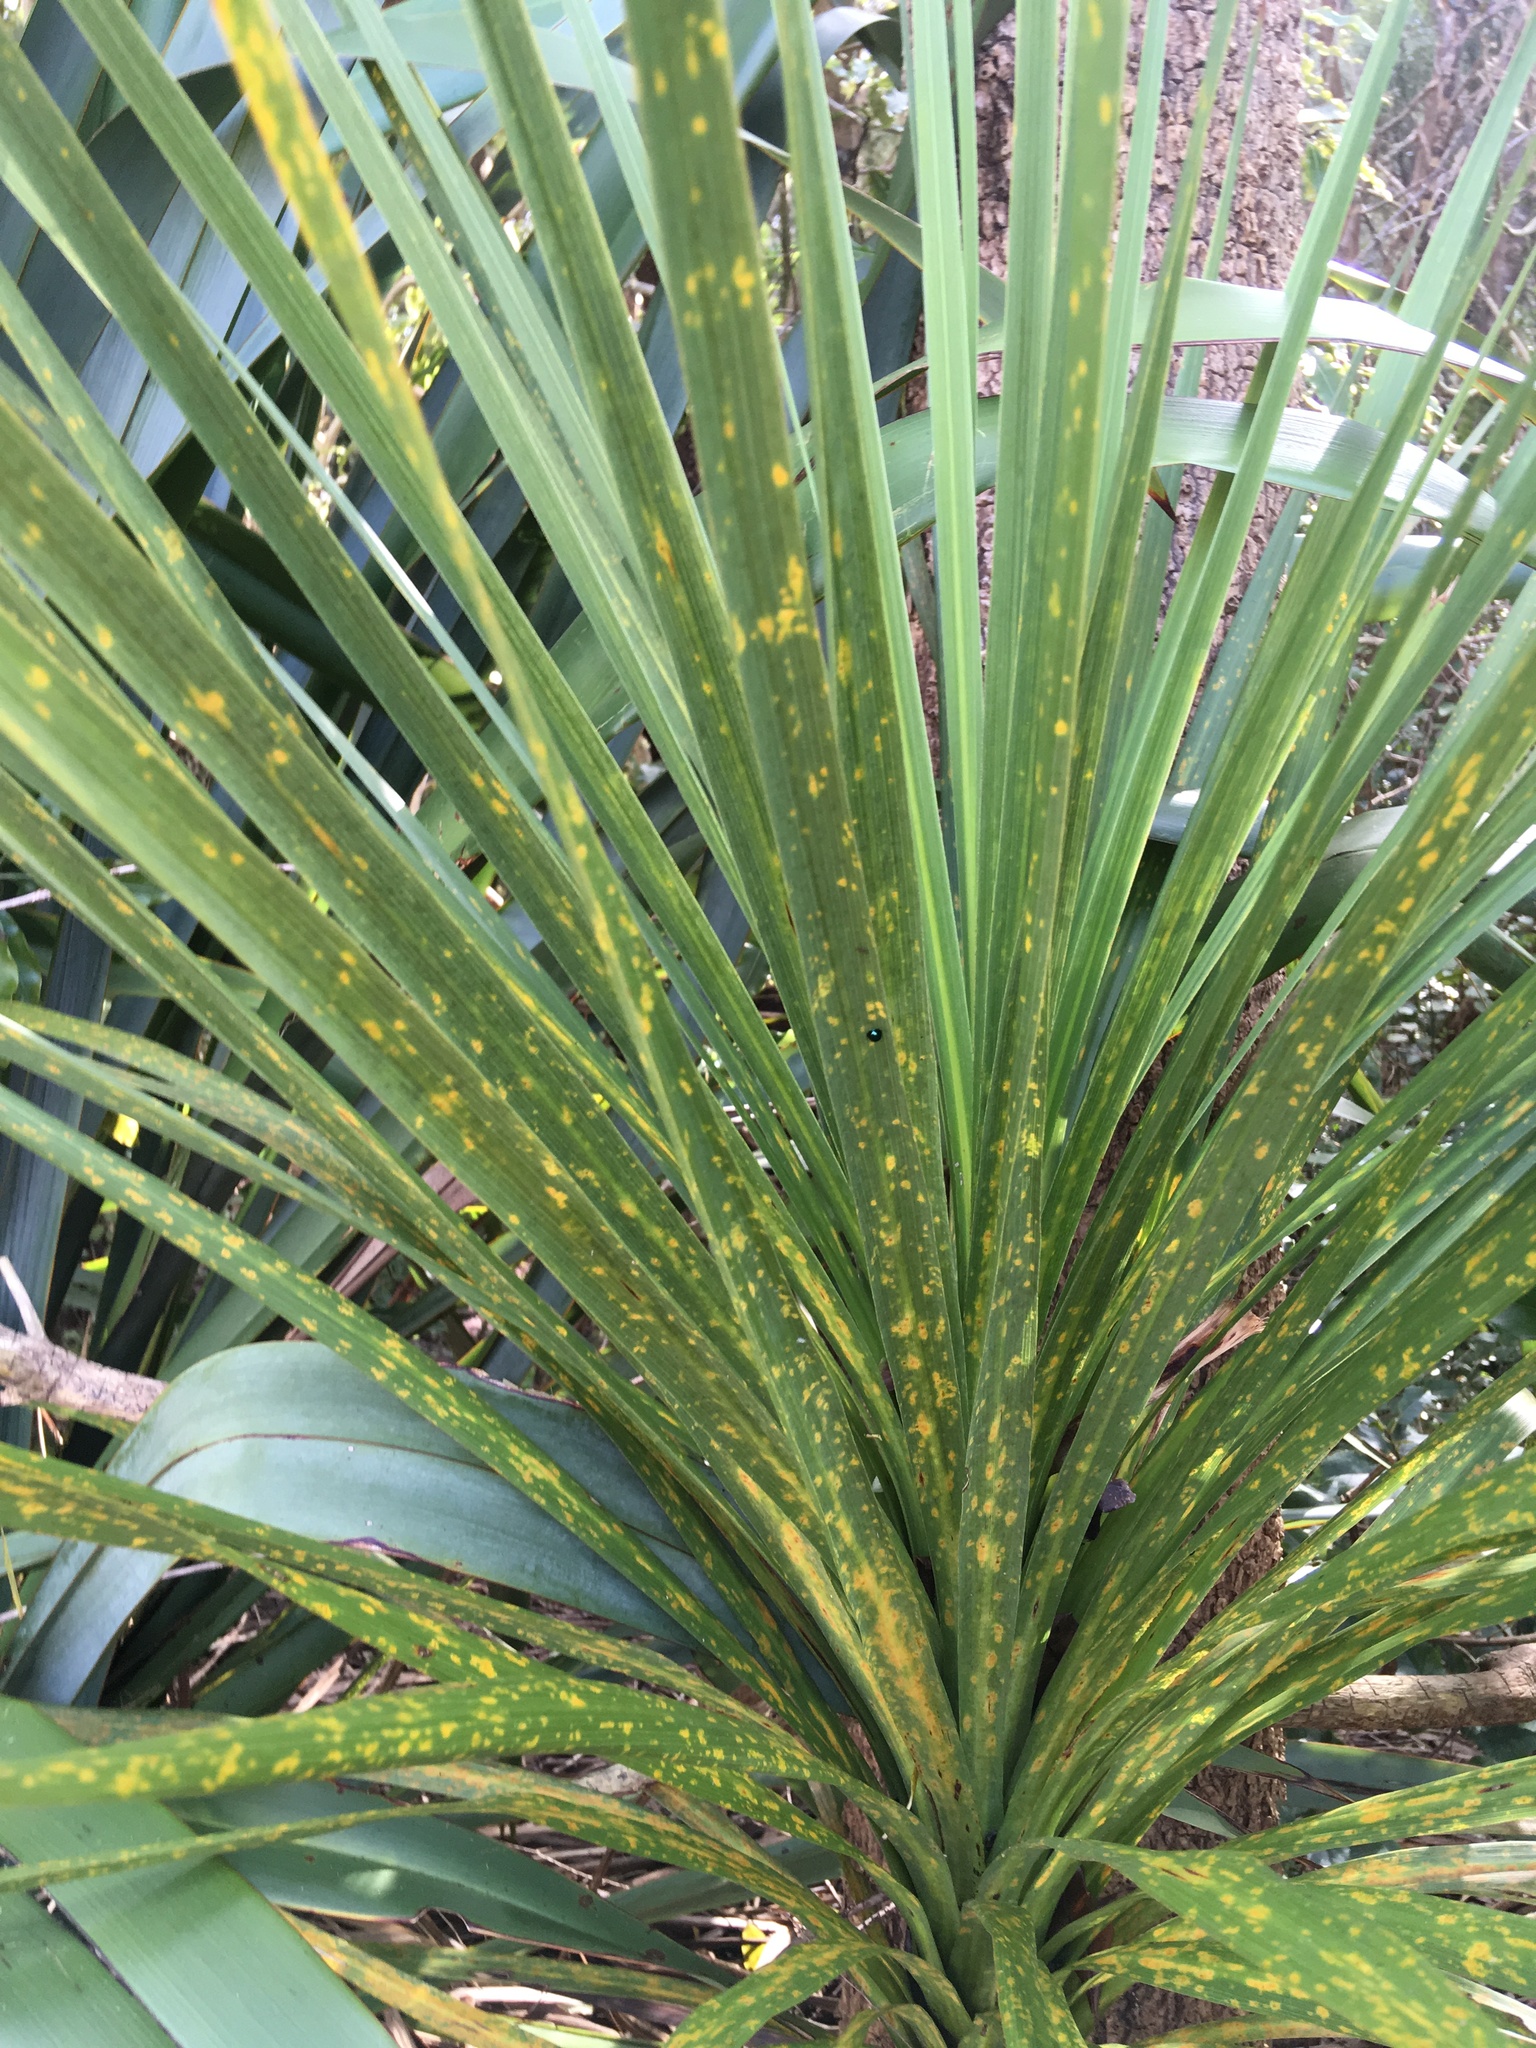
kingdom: Plantae
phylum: Tracheophyta
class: Liliopsida
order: Asparagales
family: Asparagaceae
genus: Cordyline
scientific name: Cordyline australis
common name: Cabbage-palm
